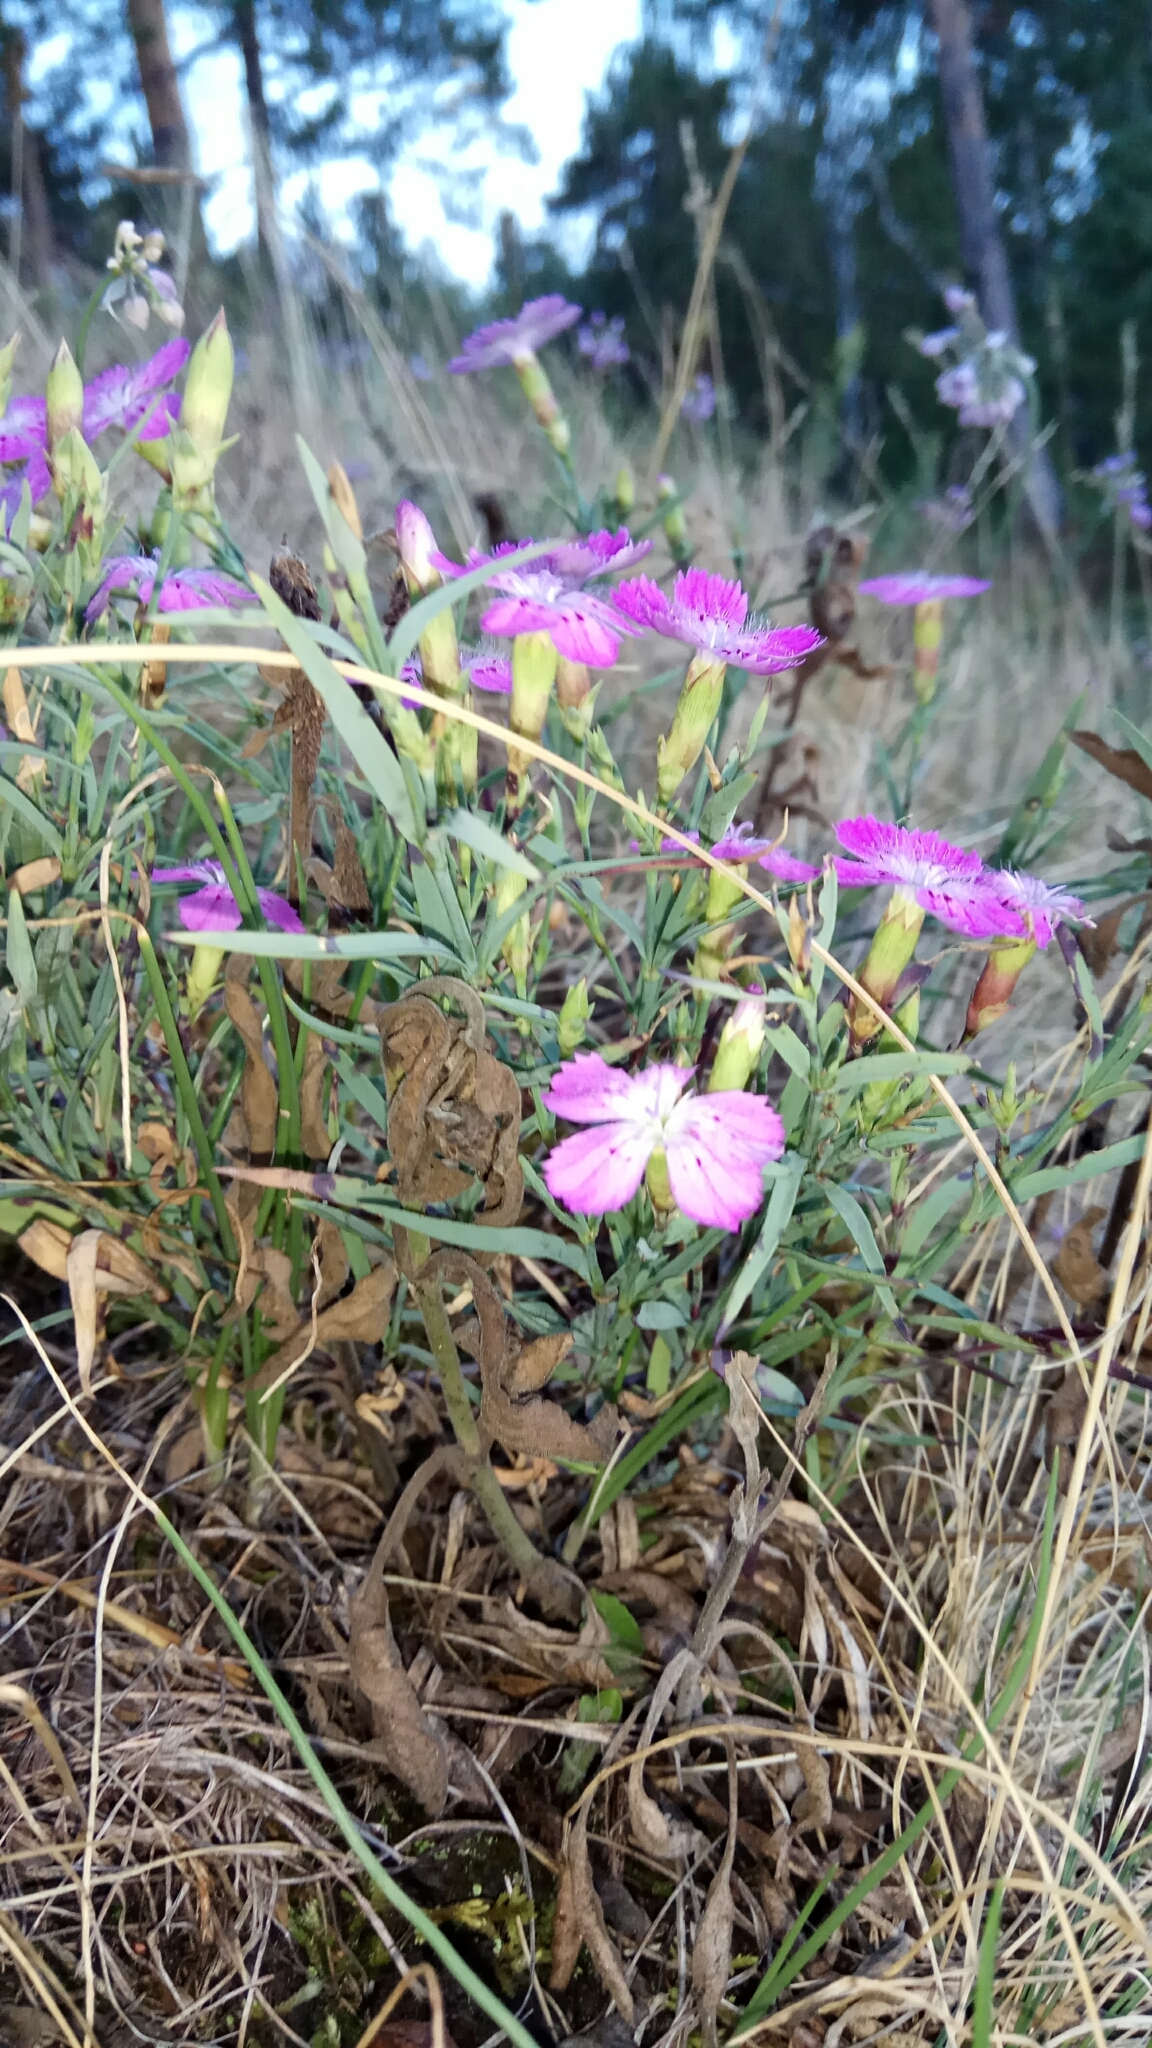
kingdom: Plantae
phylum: Tracheophyta
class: Magnoliopsida
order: Caryophyllales
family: Caryophyllaceae
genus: Dianthus
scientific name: Dianthus chinensis
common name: Rainbow pink
